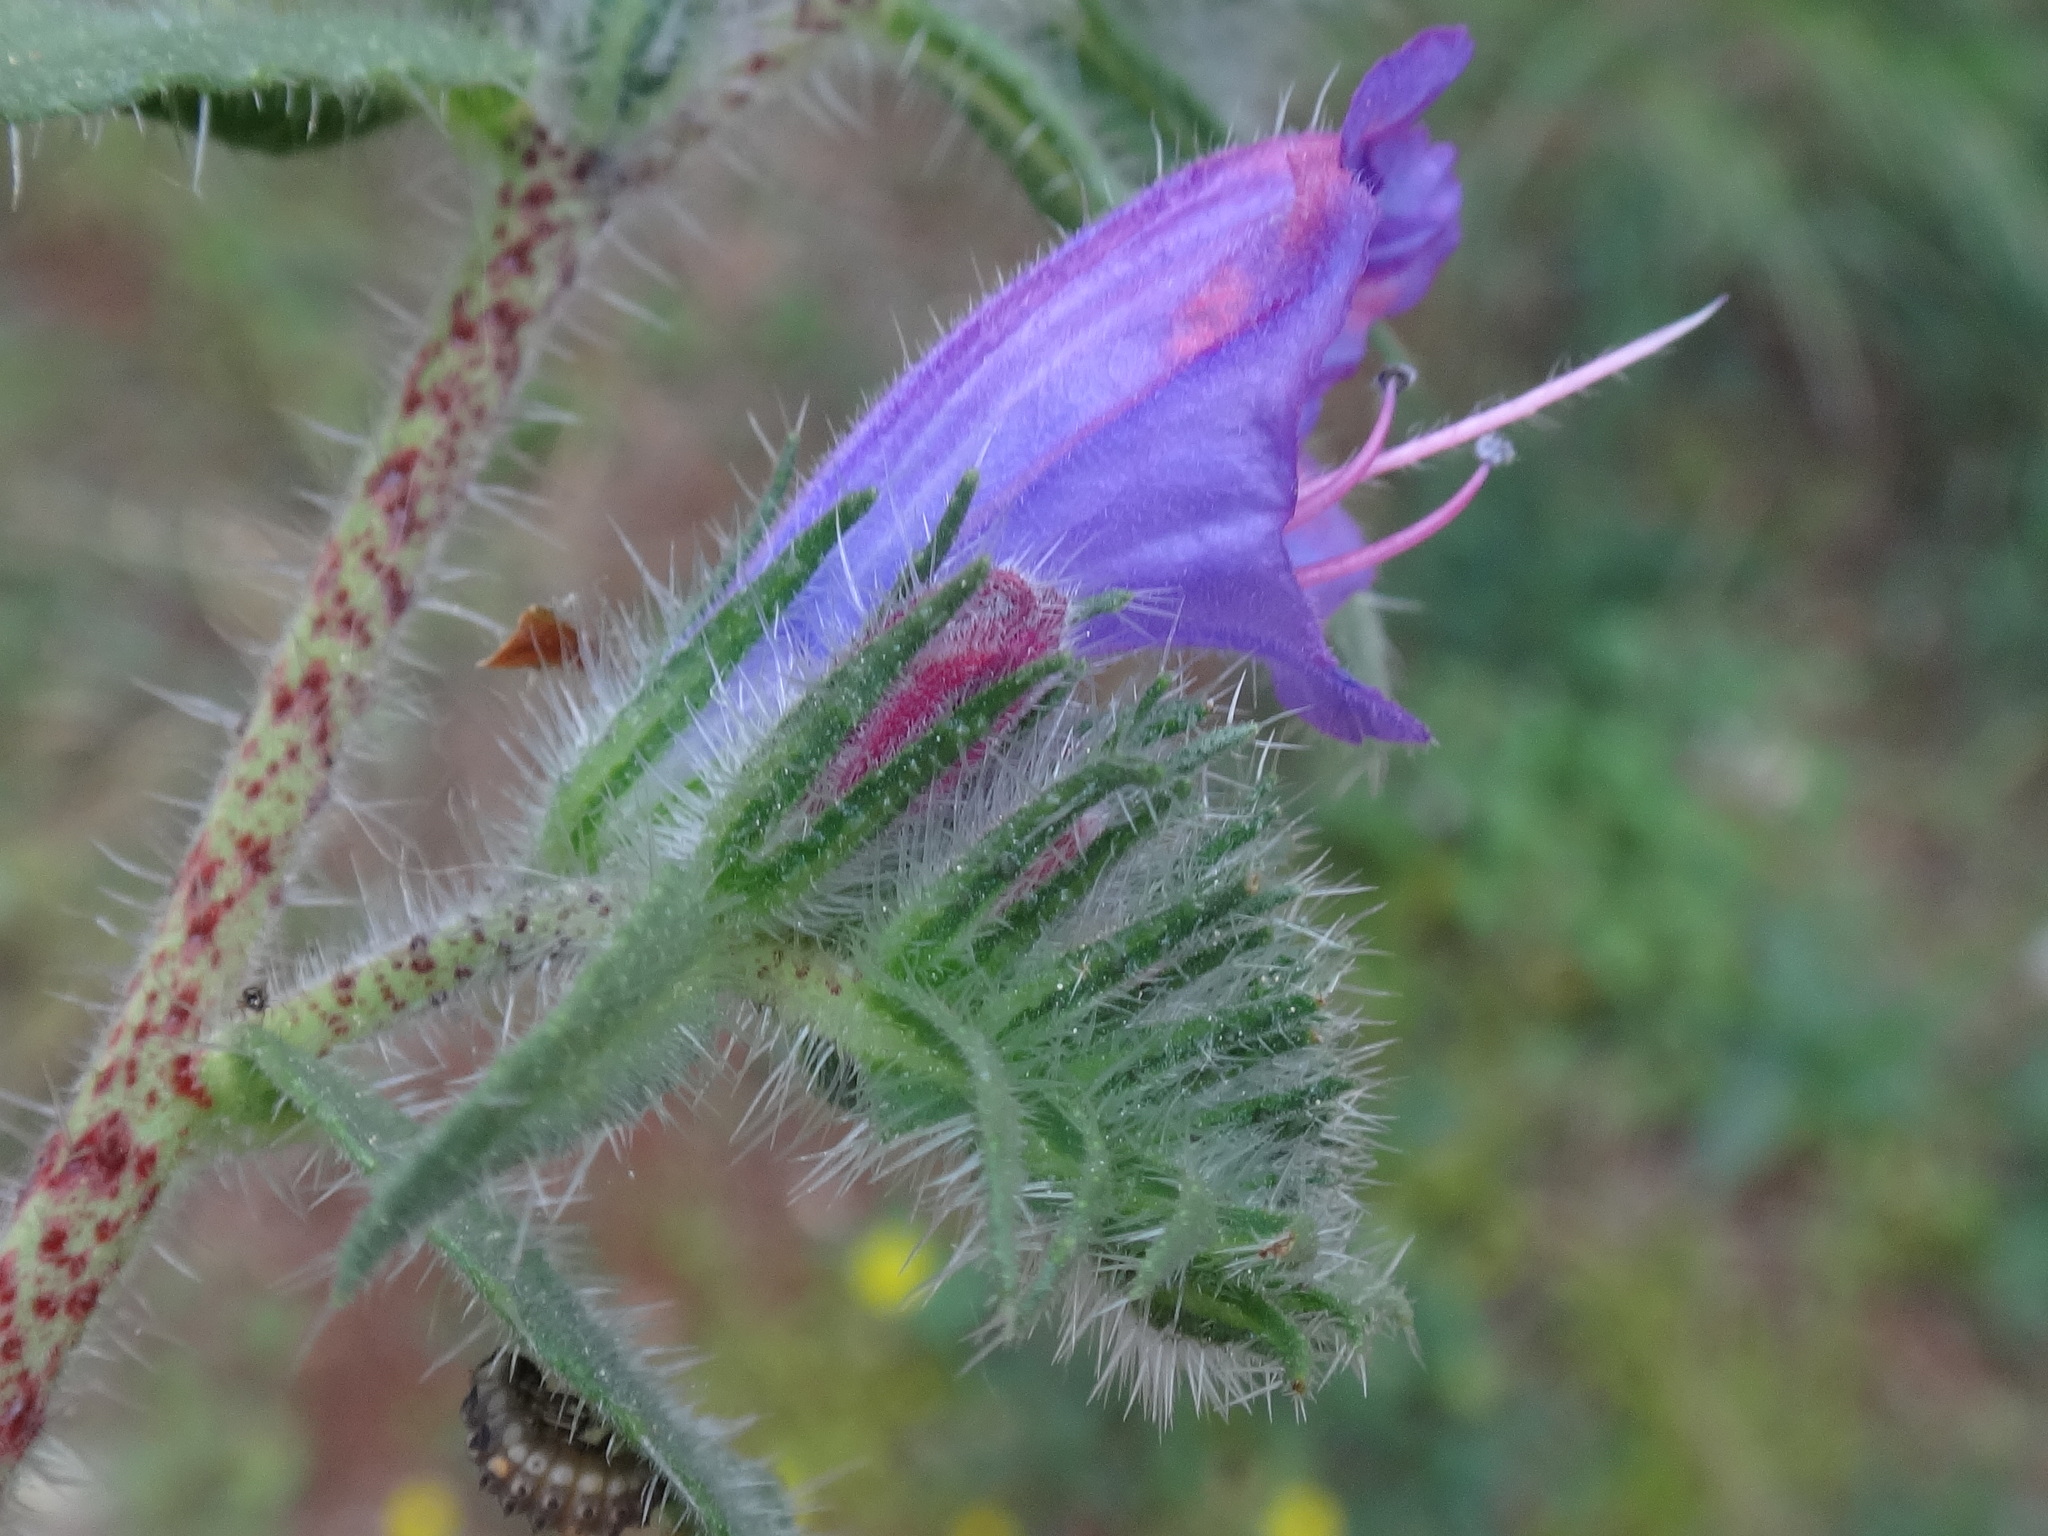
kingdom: Plantae
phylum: Tracheophyta
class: Magnoliopsida
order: Boraginales
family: Boraginaceae
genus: Echium
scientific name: Echium vulgare
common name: Common viper's bugloss
